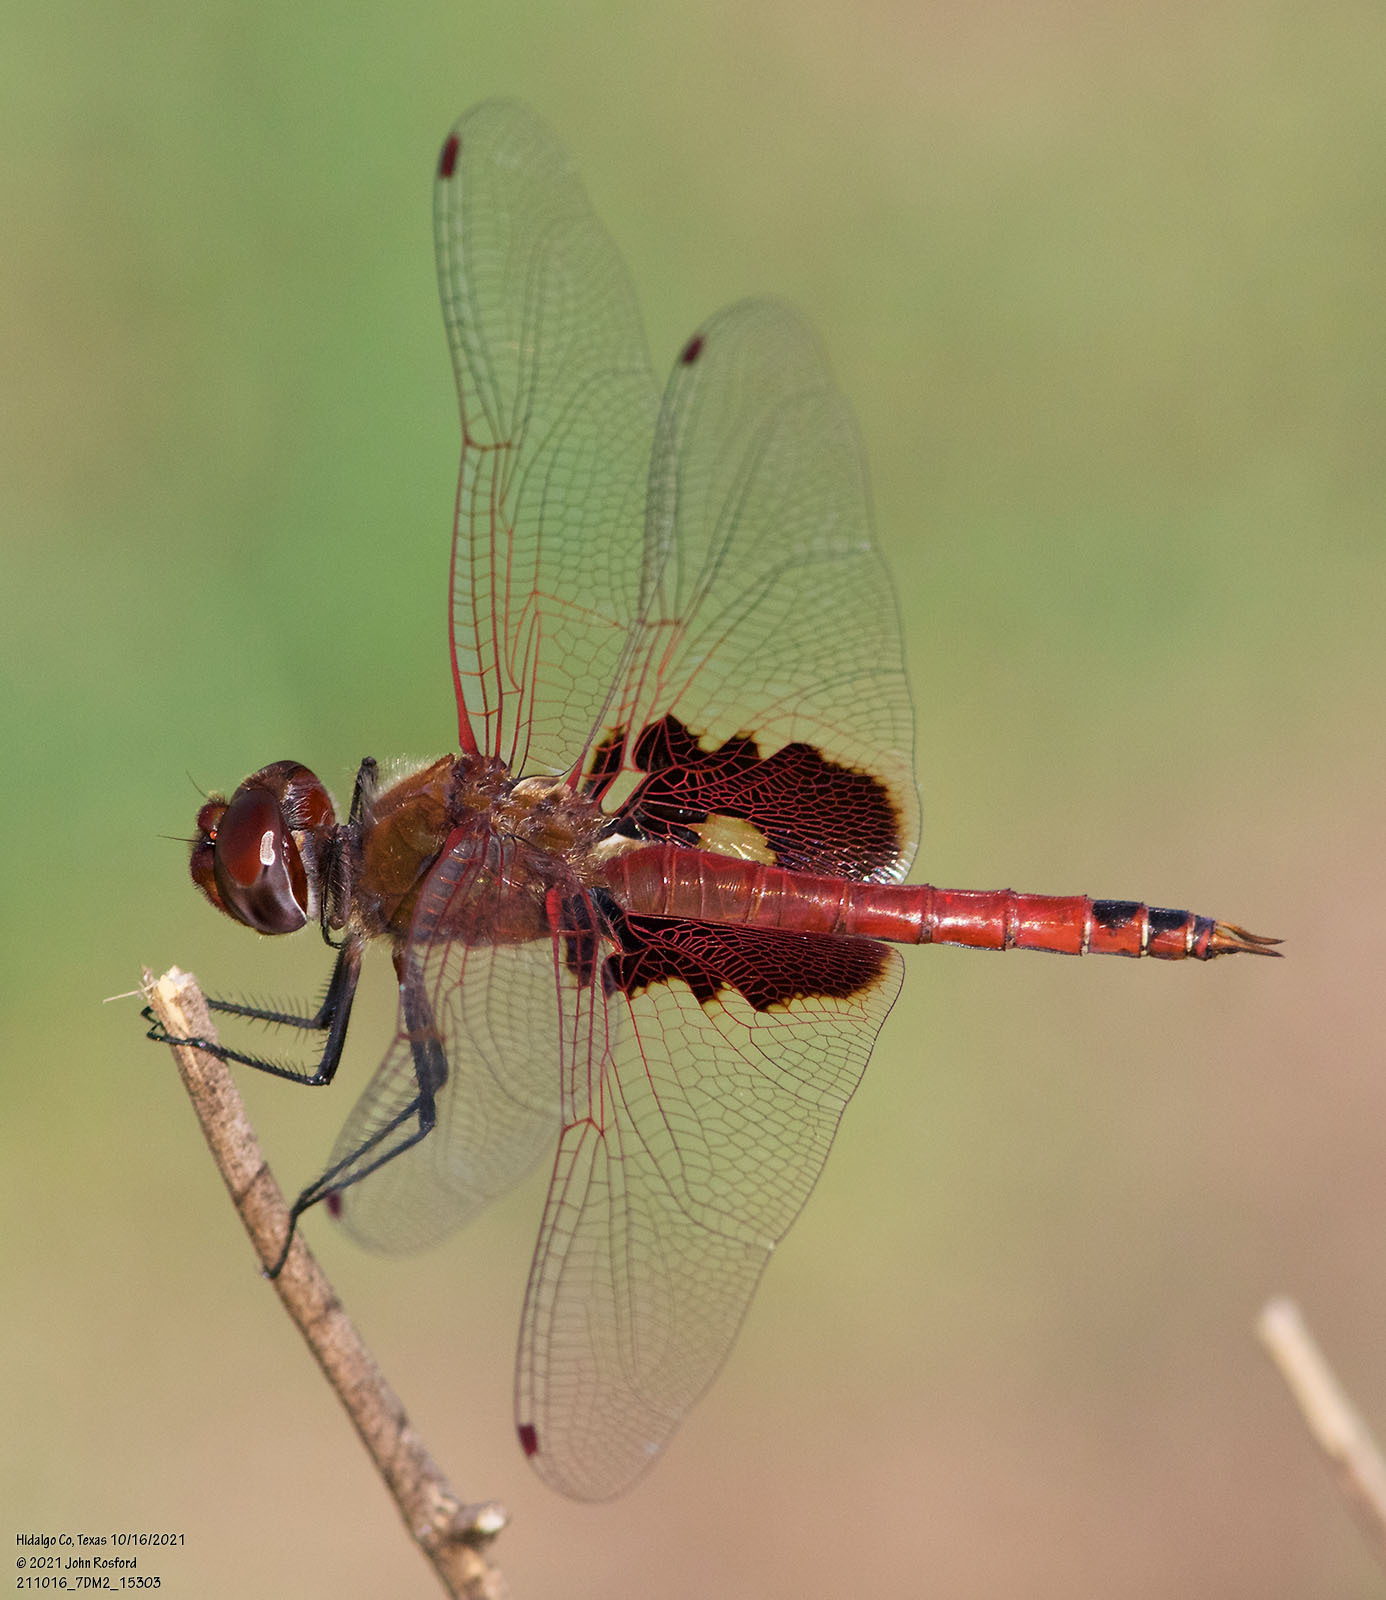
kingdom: Animalia
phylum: Arthropoda
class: Insecta
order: Odonata
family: Libellulidae
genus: Tramea
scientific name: Tramea onusta
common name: Red saddlebags
